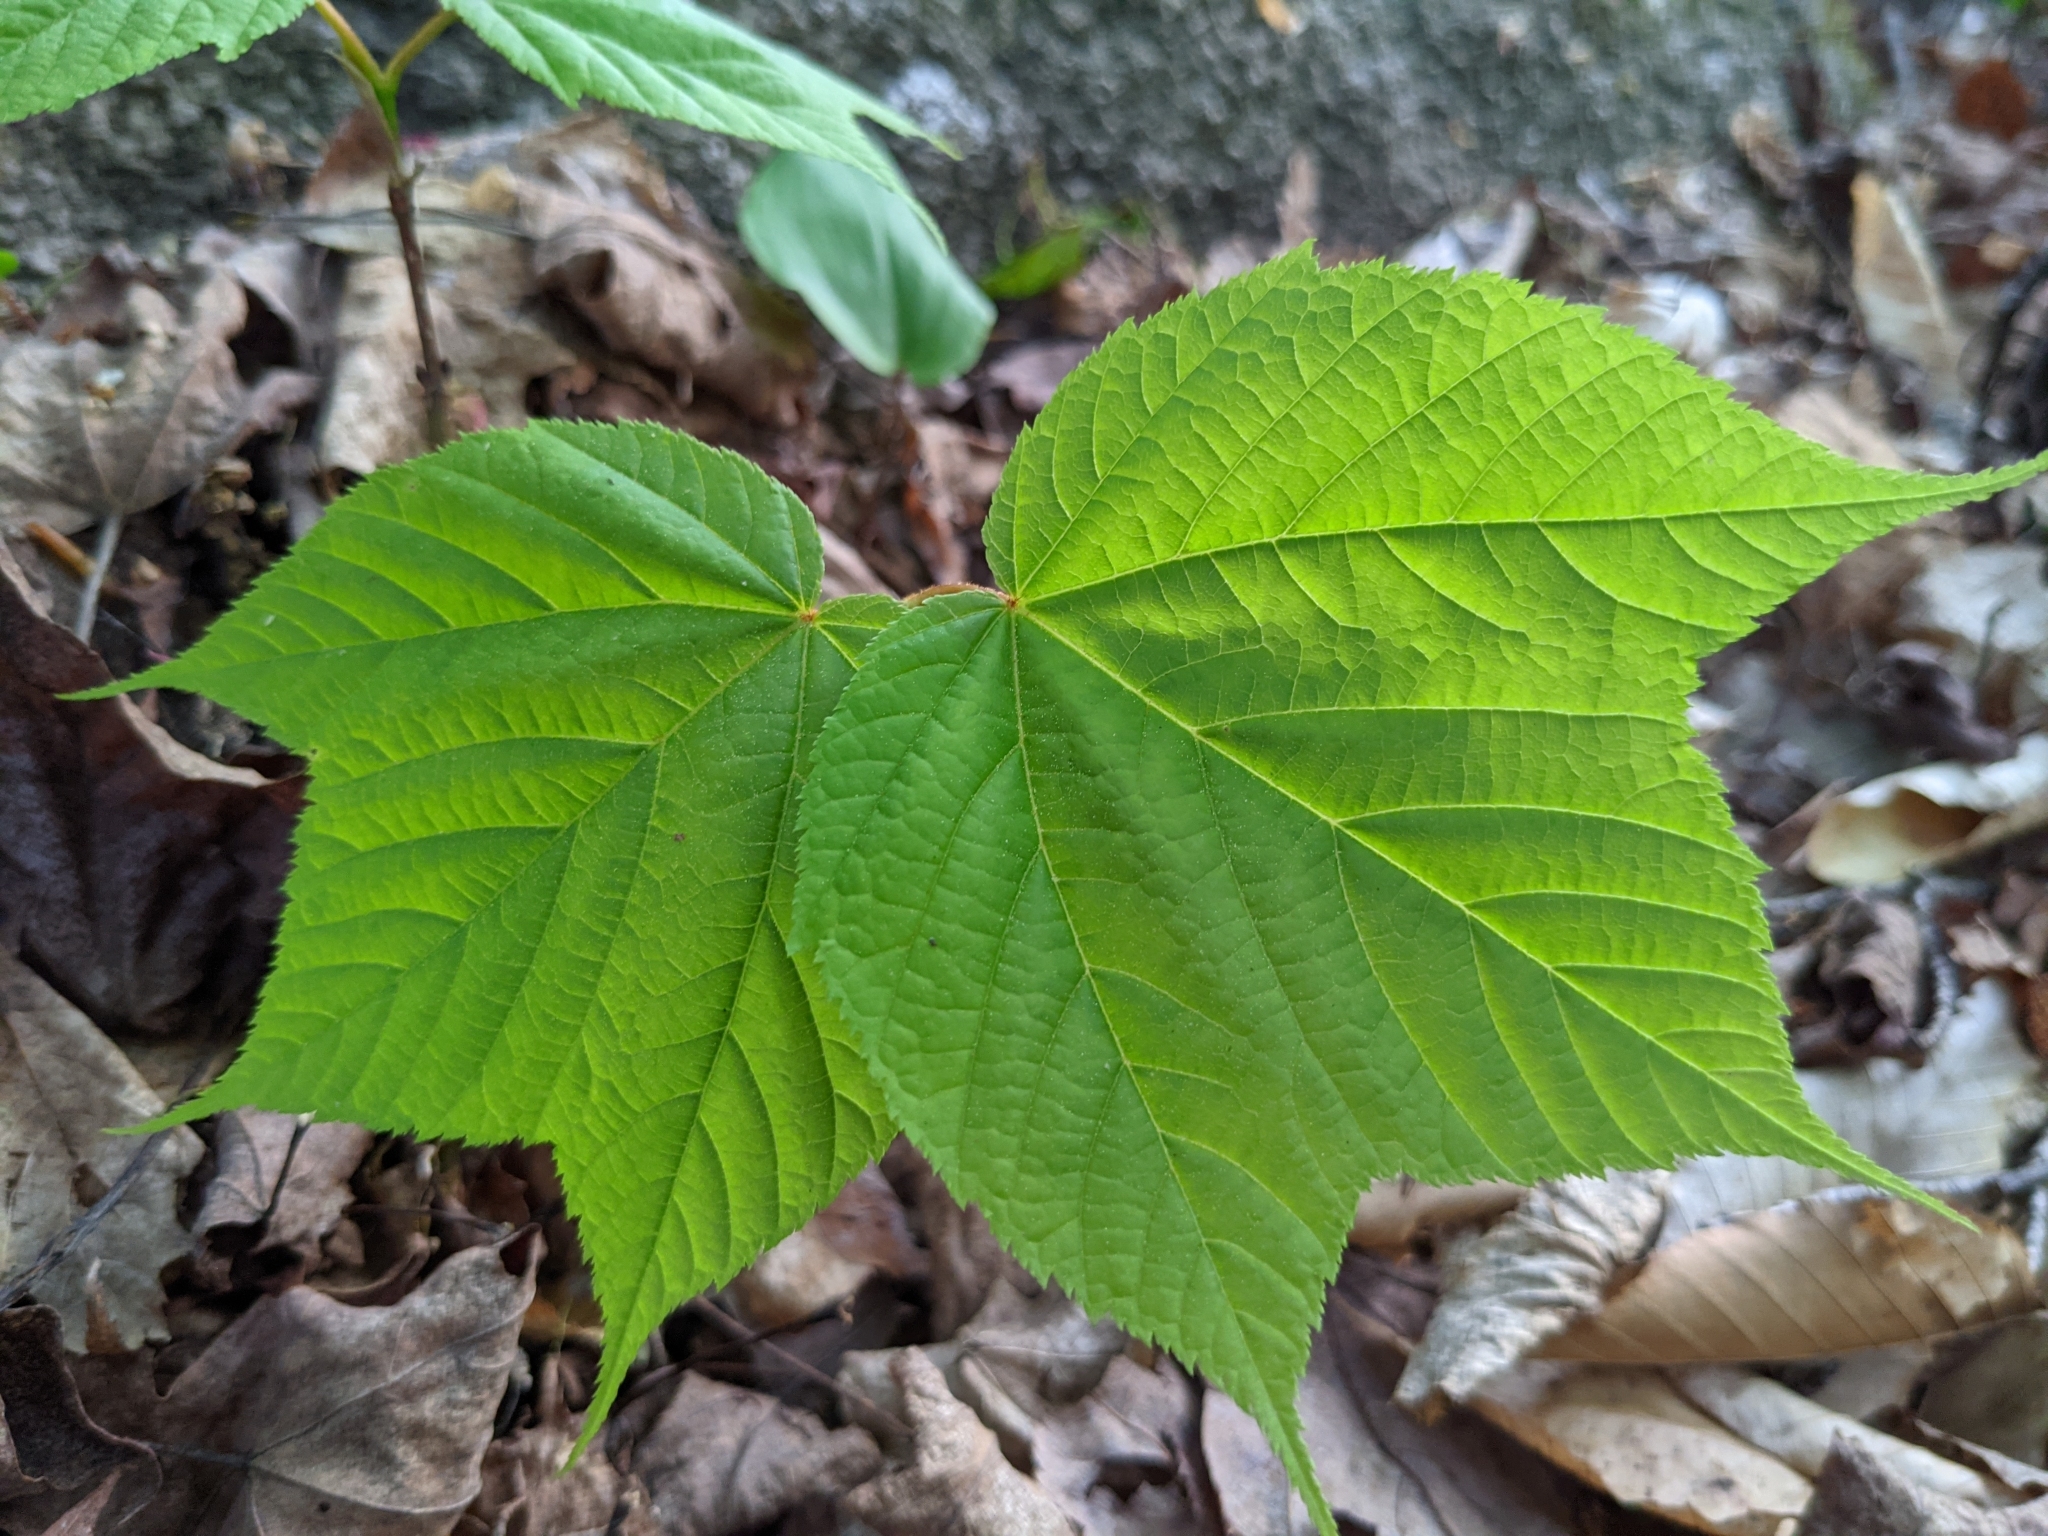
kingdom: Plantae
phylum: Tracheophyta
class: Magnoliopsida
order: Sapindales
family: Sapindaceae
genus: Acer
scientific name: Acer pensylvanicum
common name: Moosewood
